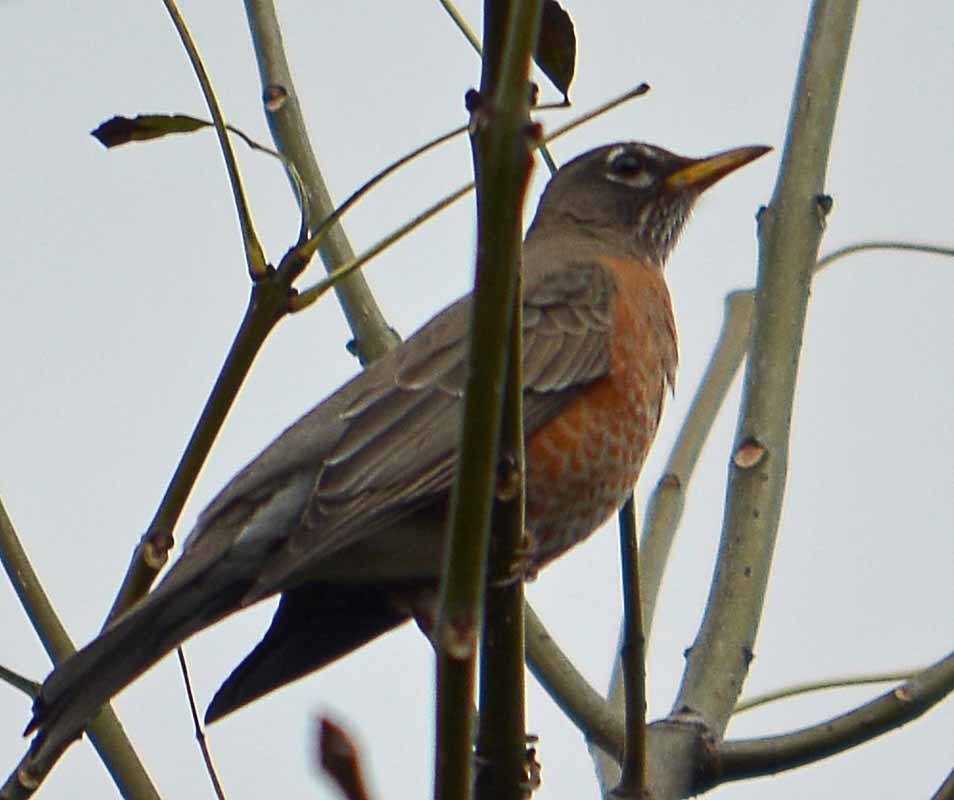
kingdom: Animalia
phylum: Chordata
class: Aves
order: Passeriformes
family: Turdidae
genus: Turdus
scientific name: Turdus migratorius
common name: American robin
